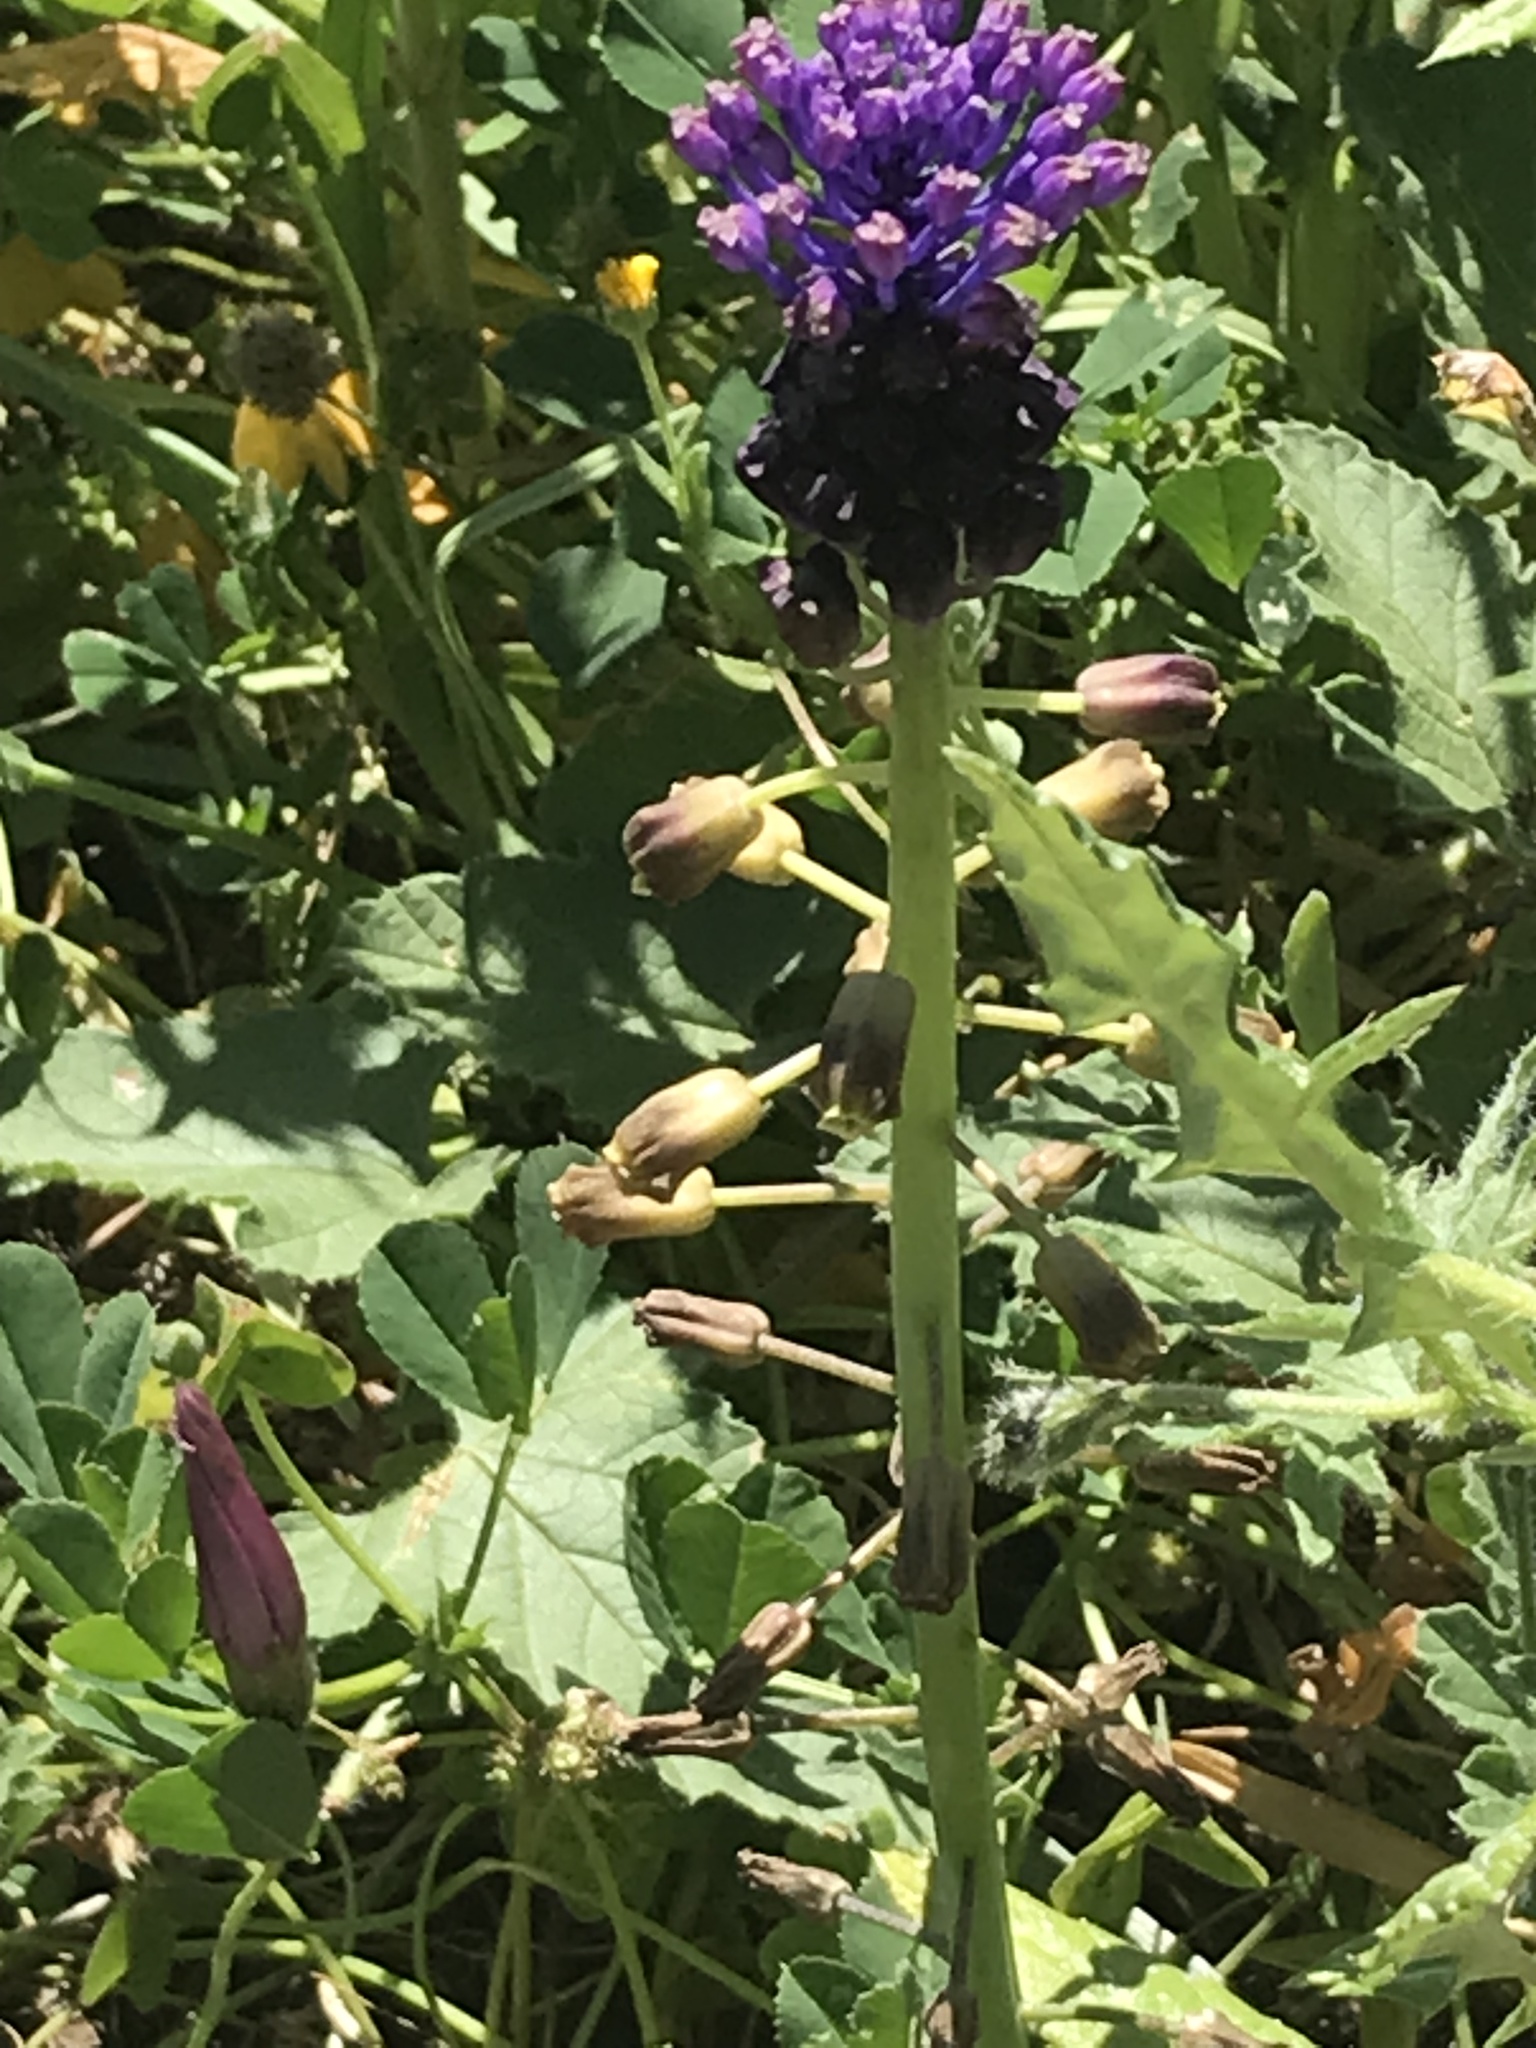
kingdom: Plantae
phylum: Tracheophyta
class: Liliopsida
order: Asparagales
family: Asparagaceae
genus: Muscari
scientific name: Muscari comosum
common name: Tassel hyacinth
